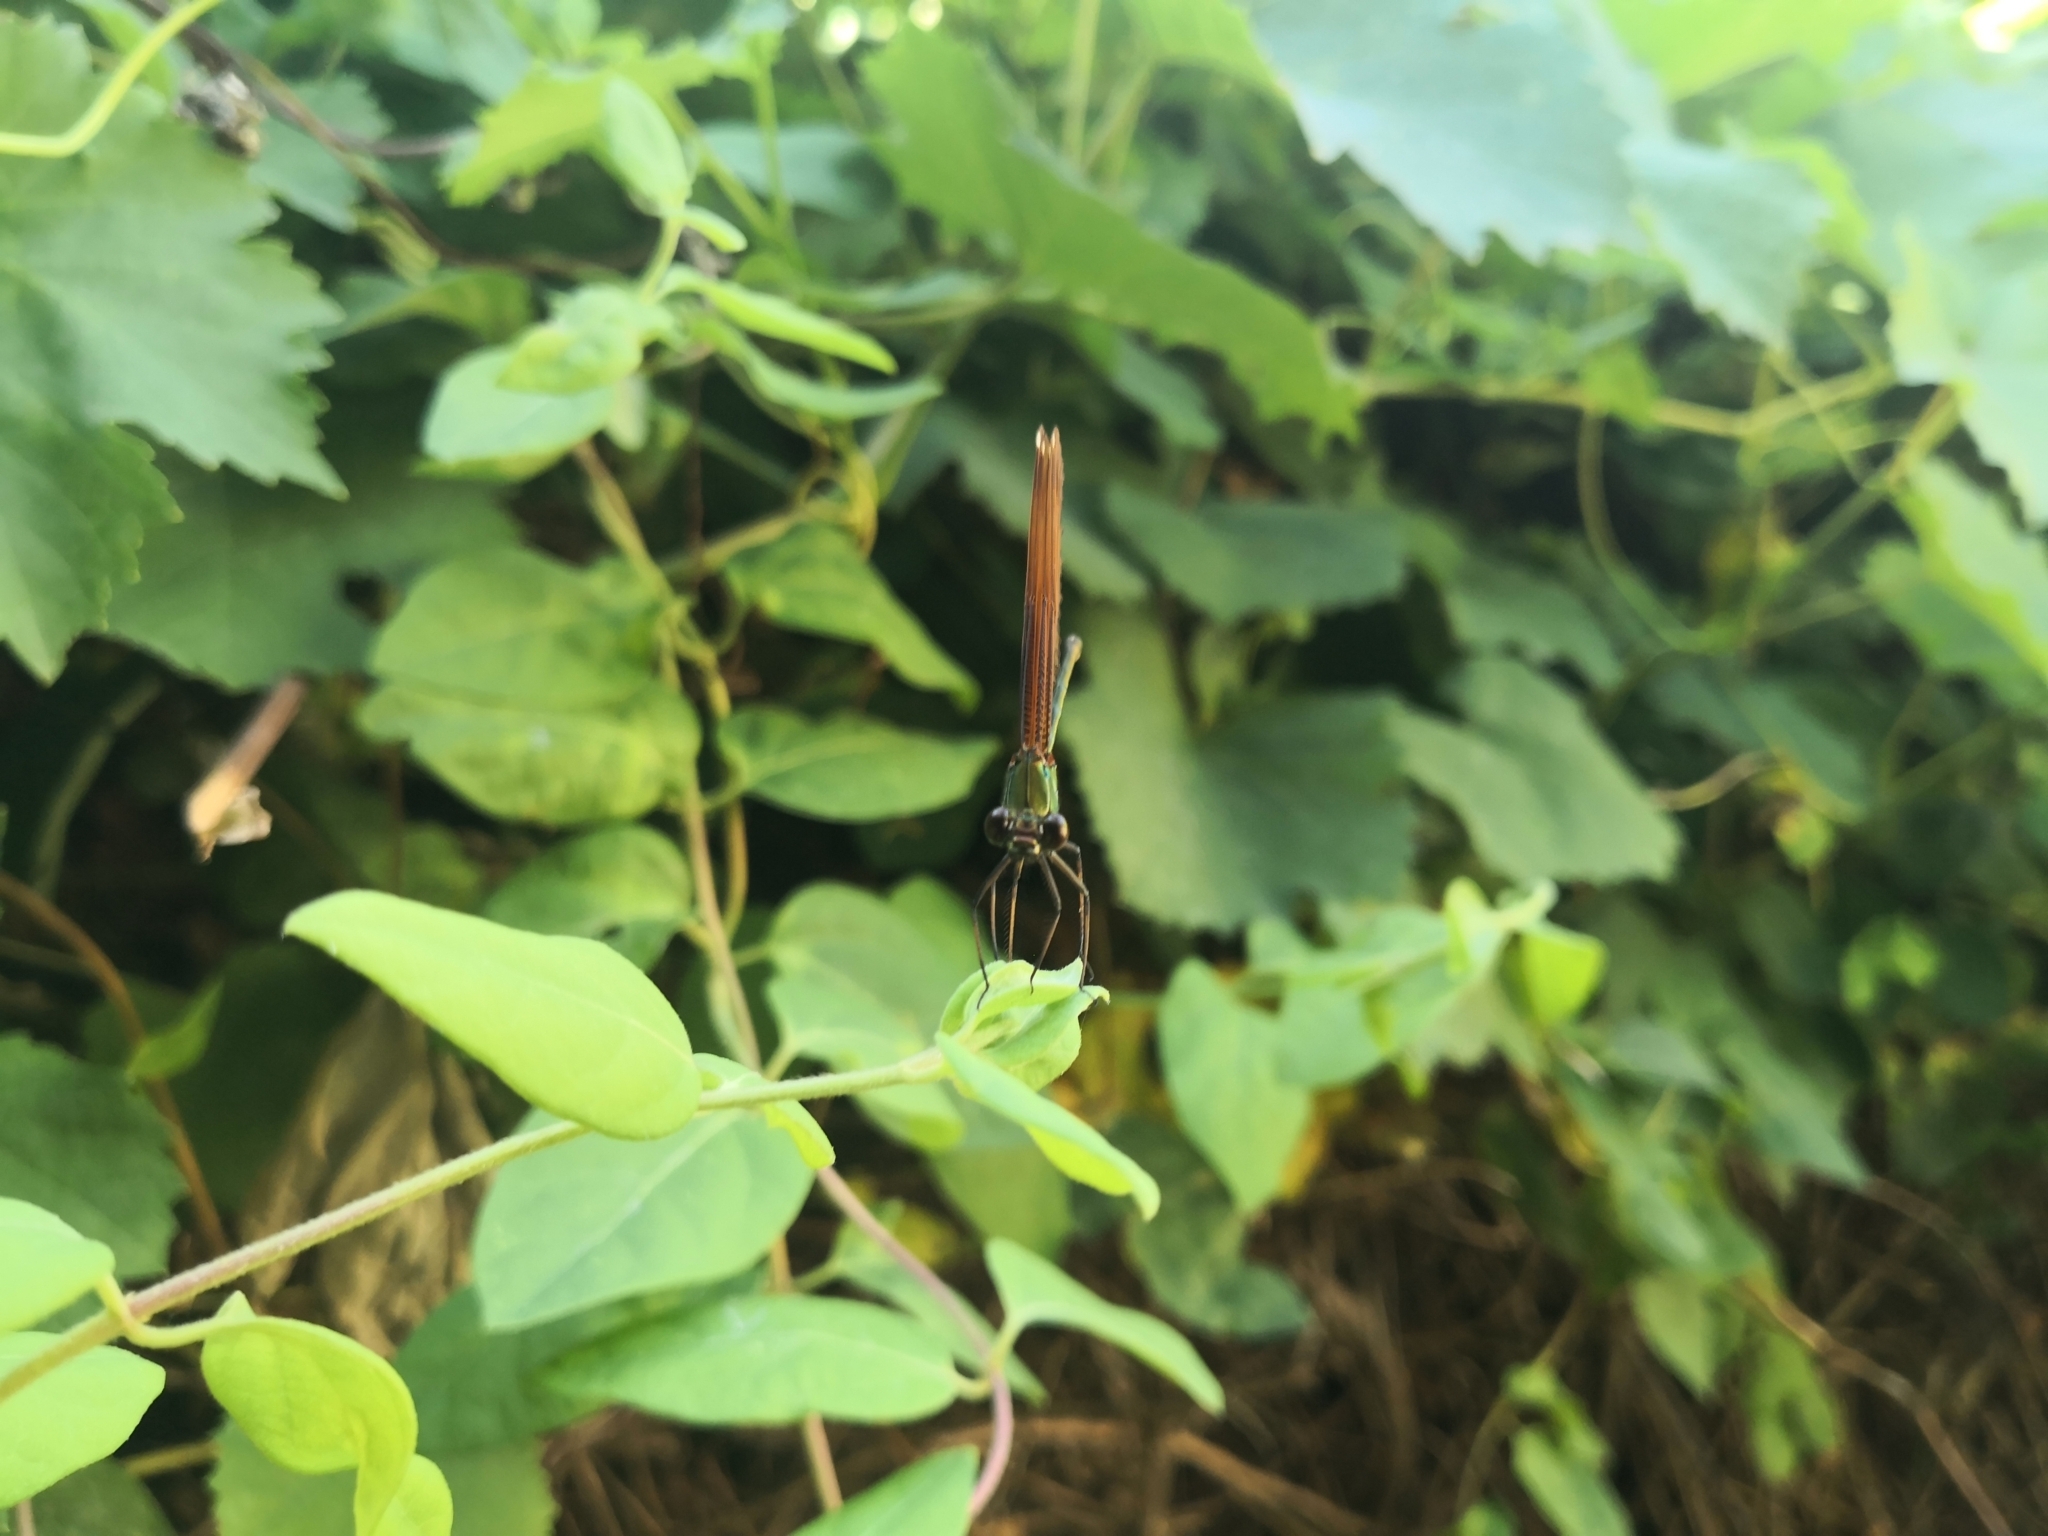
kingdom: Animalia
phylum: Arthropoda
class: Insecta
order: Odonata
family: Calopterygidae
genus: Calopteryx
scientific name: Calopteryx haemorrhoidalis
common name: Copper demoiselle
